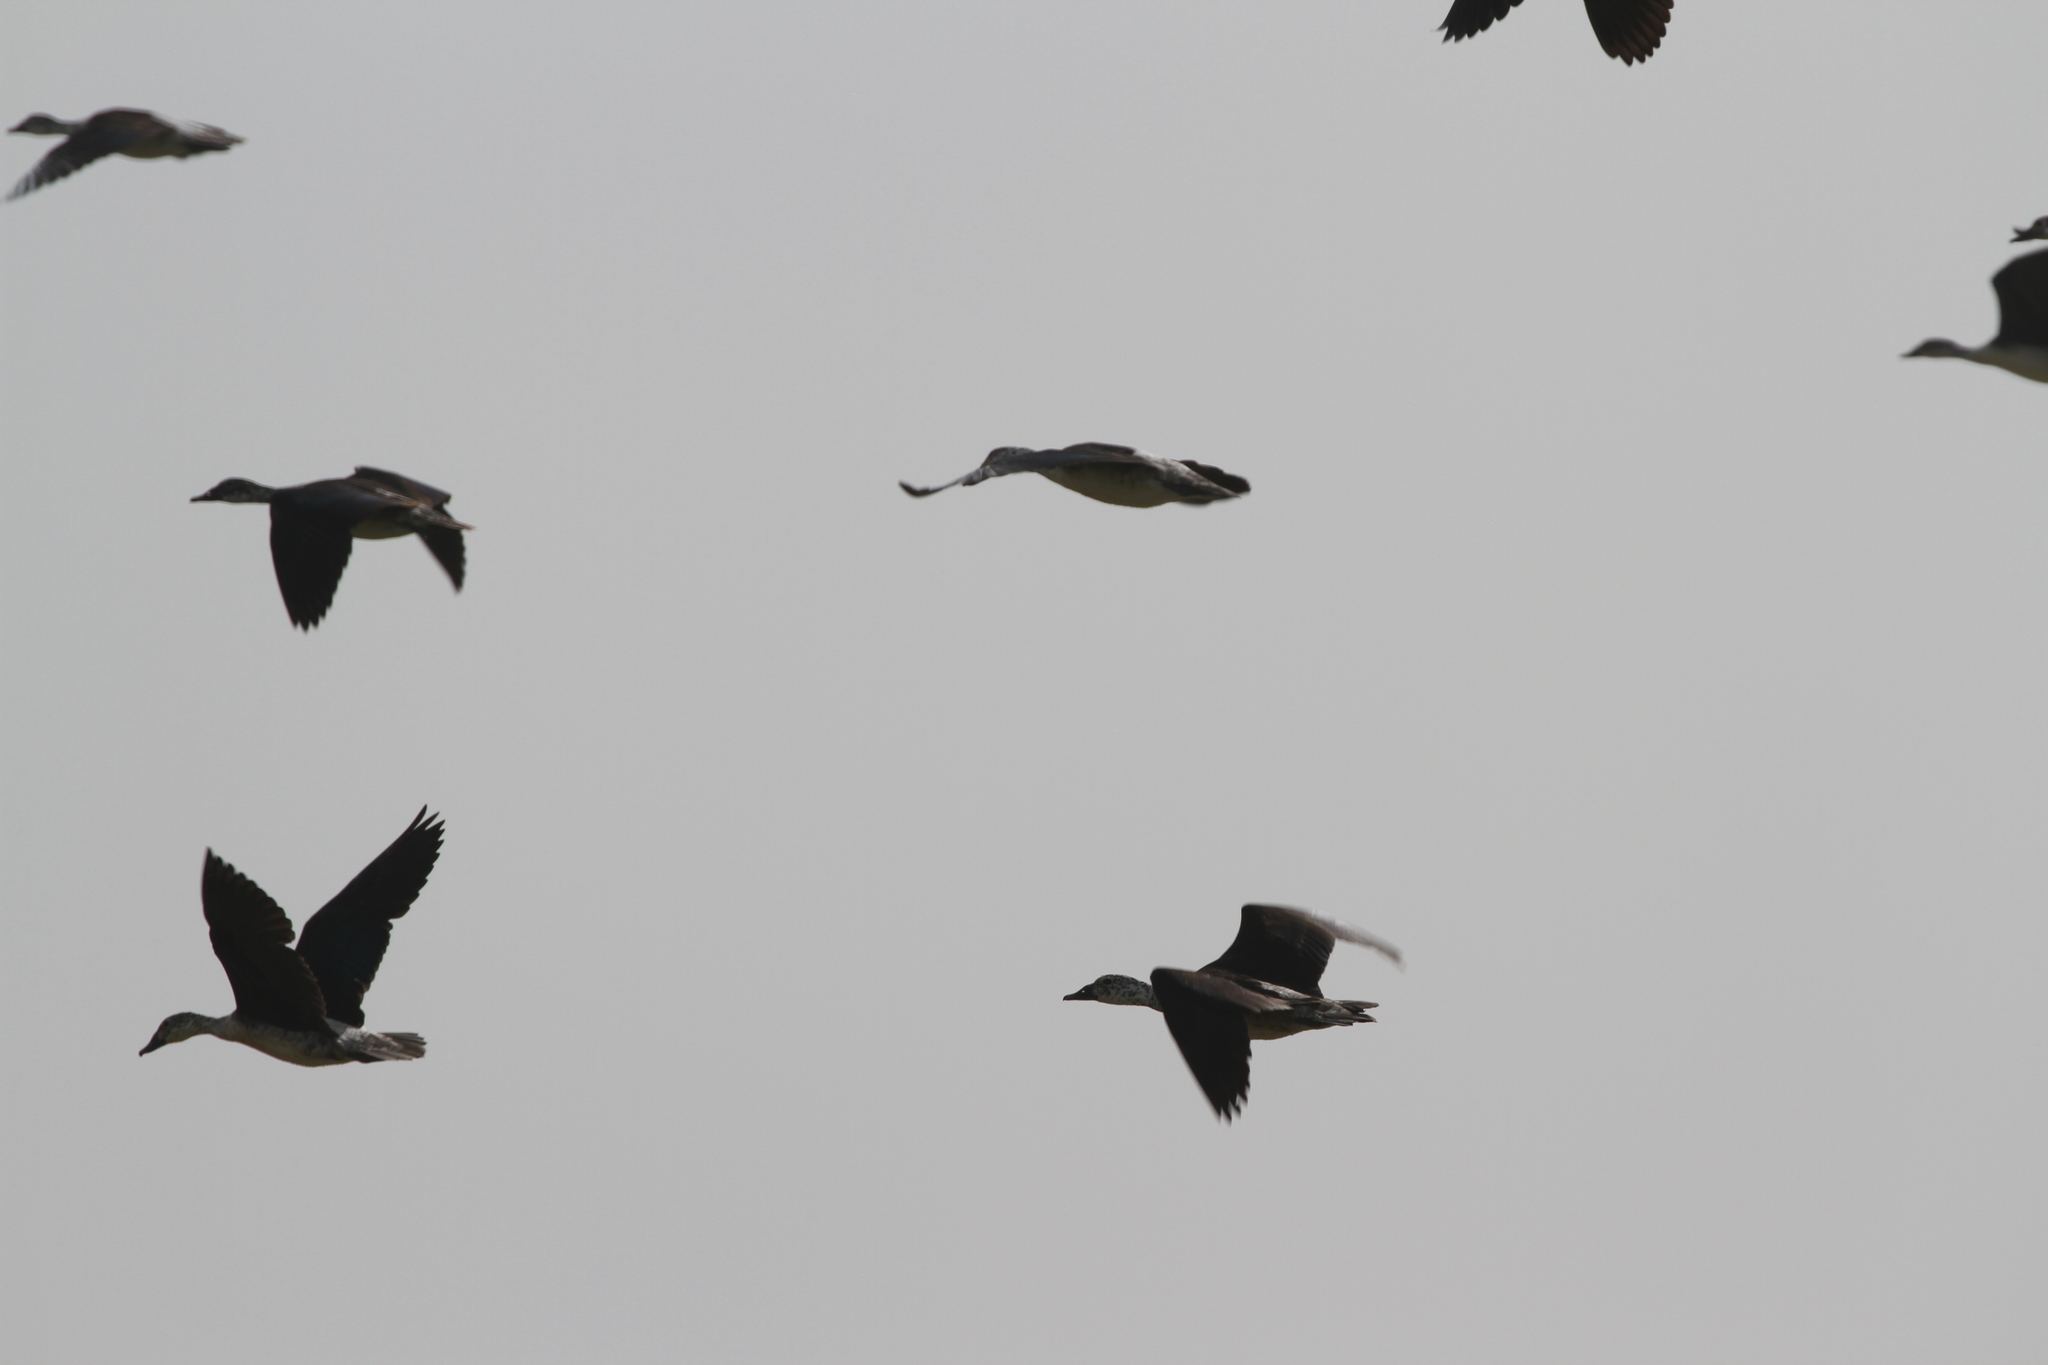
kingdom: Animalia
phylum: Chordata
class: Aves
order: Anseriformes
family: Anatidae
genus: Sarkidiornis
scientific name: Sarkidiornis melanotos
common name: Comb duck
